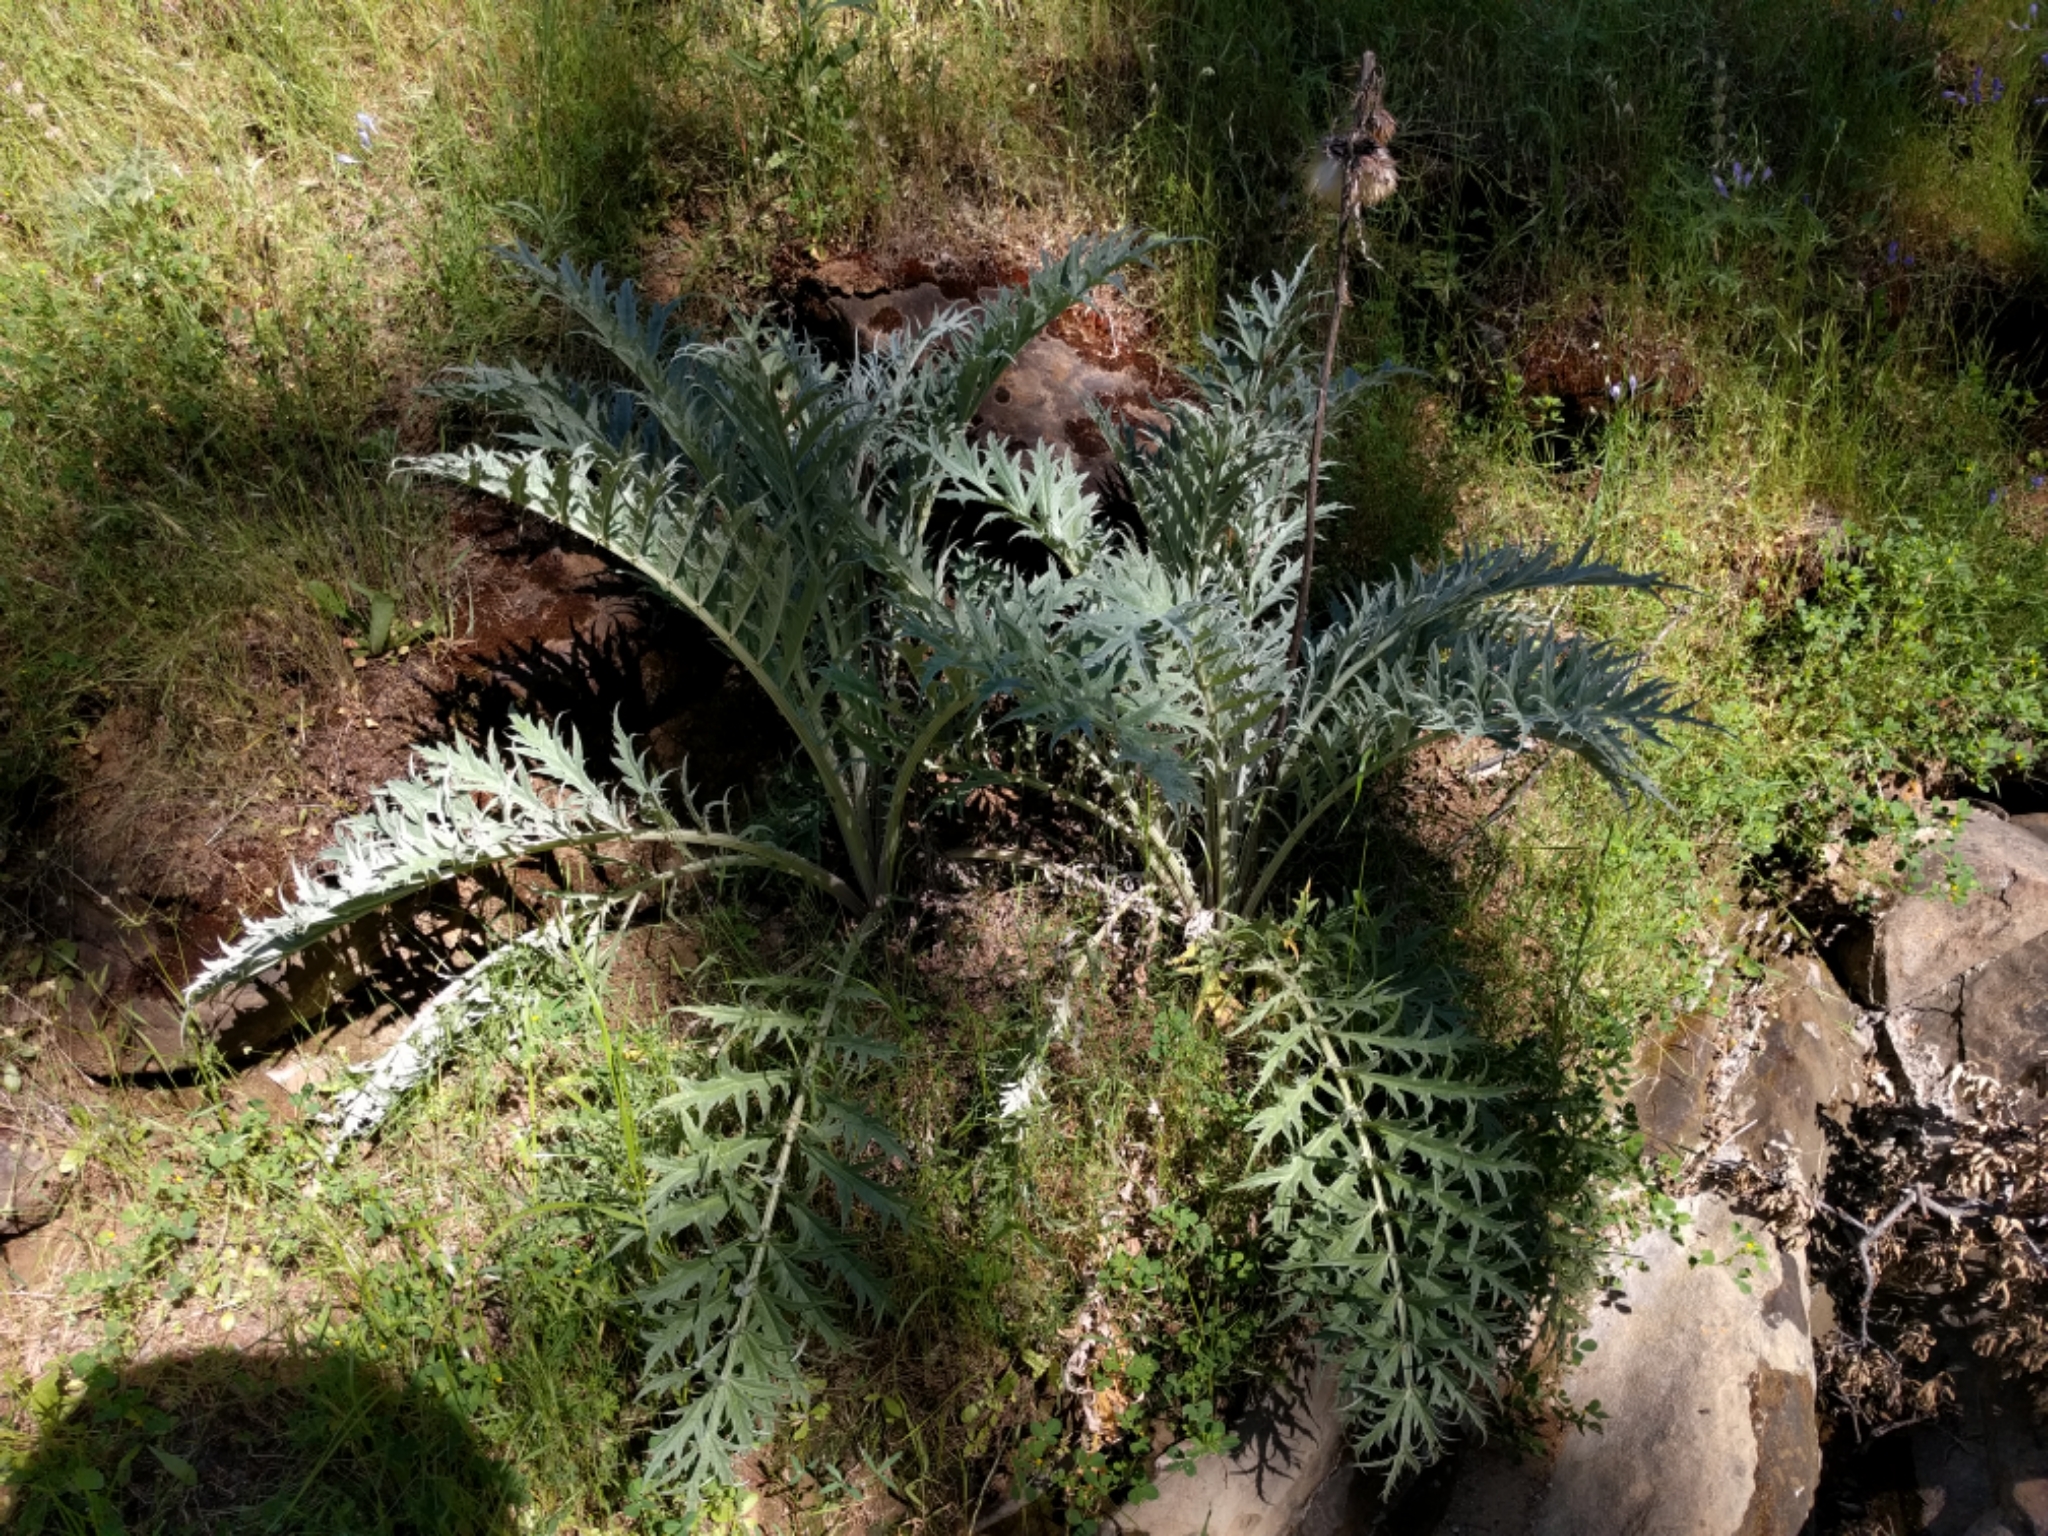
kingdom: Plantae
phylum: Tracheophyta
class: Magnoliopsida
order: Asterales
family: Asteraceae
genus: Cynara
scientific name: Cynara cardunculus
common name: Globe artichoke
